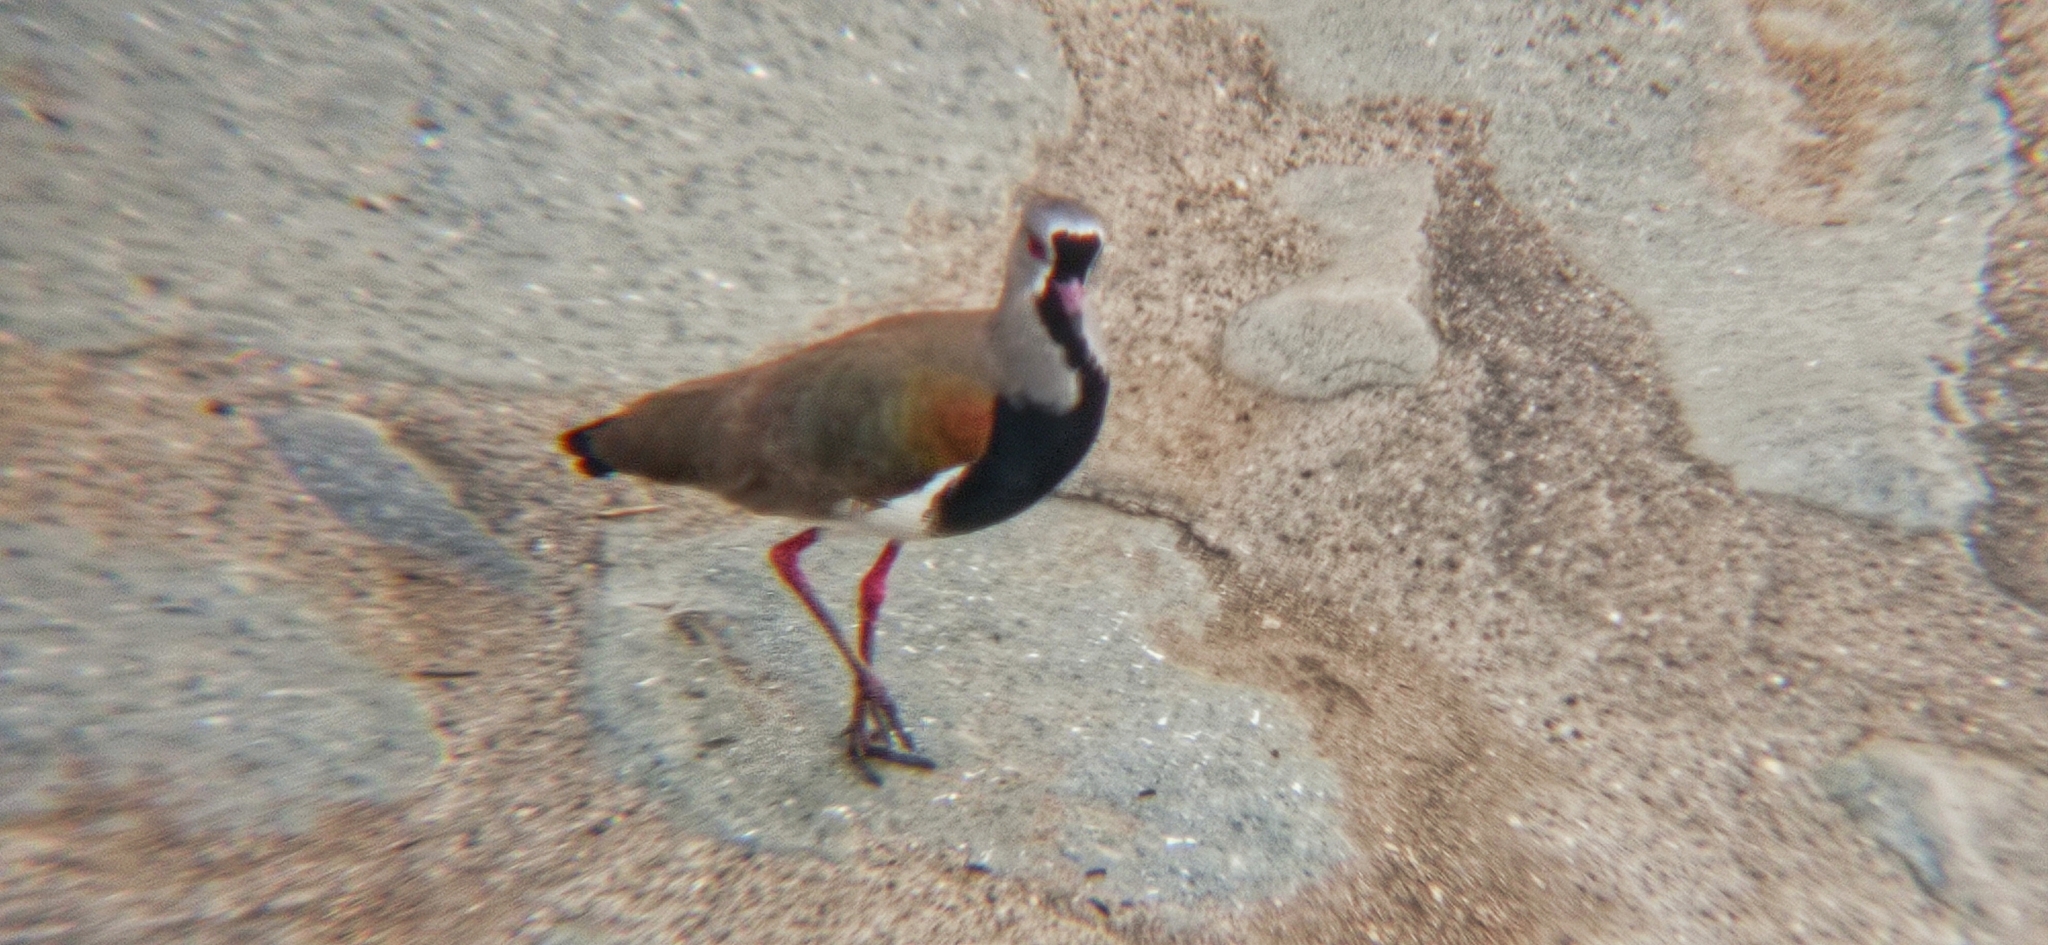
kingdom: Animalia
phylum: Chordata
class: Aves
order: Charadriiformes
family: Charadriidae
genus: Vanellus
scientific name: Vanellus chilensis
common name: Southern lapwing
